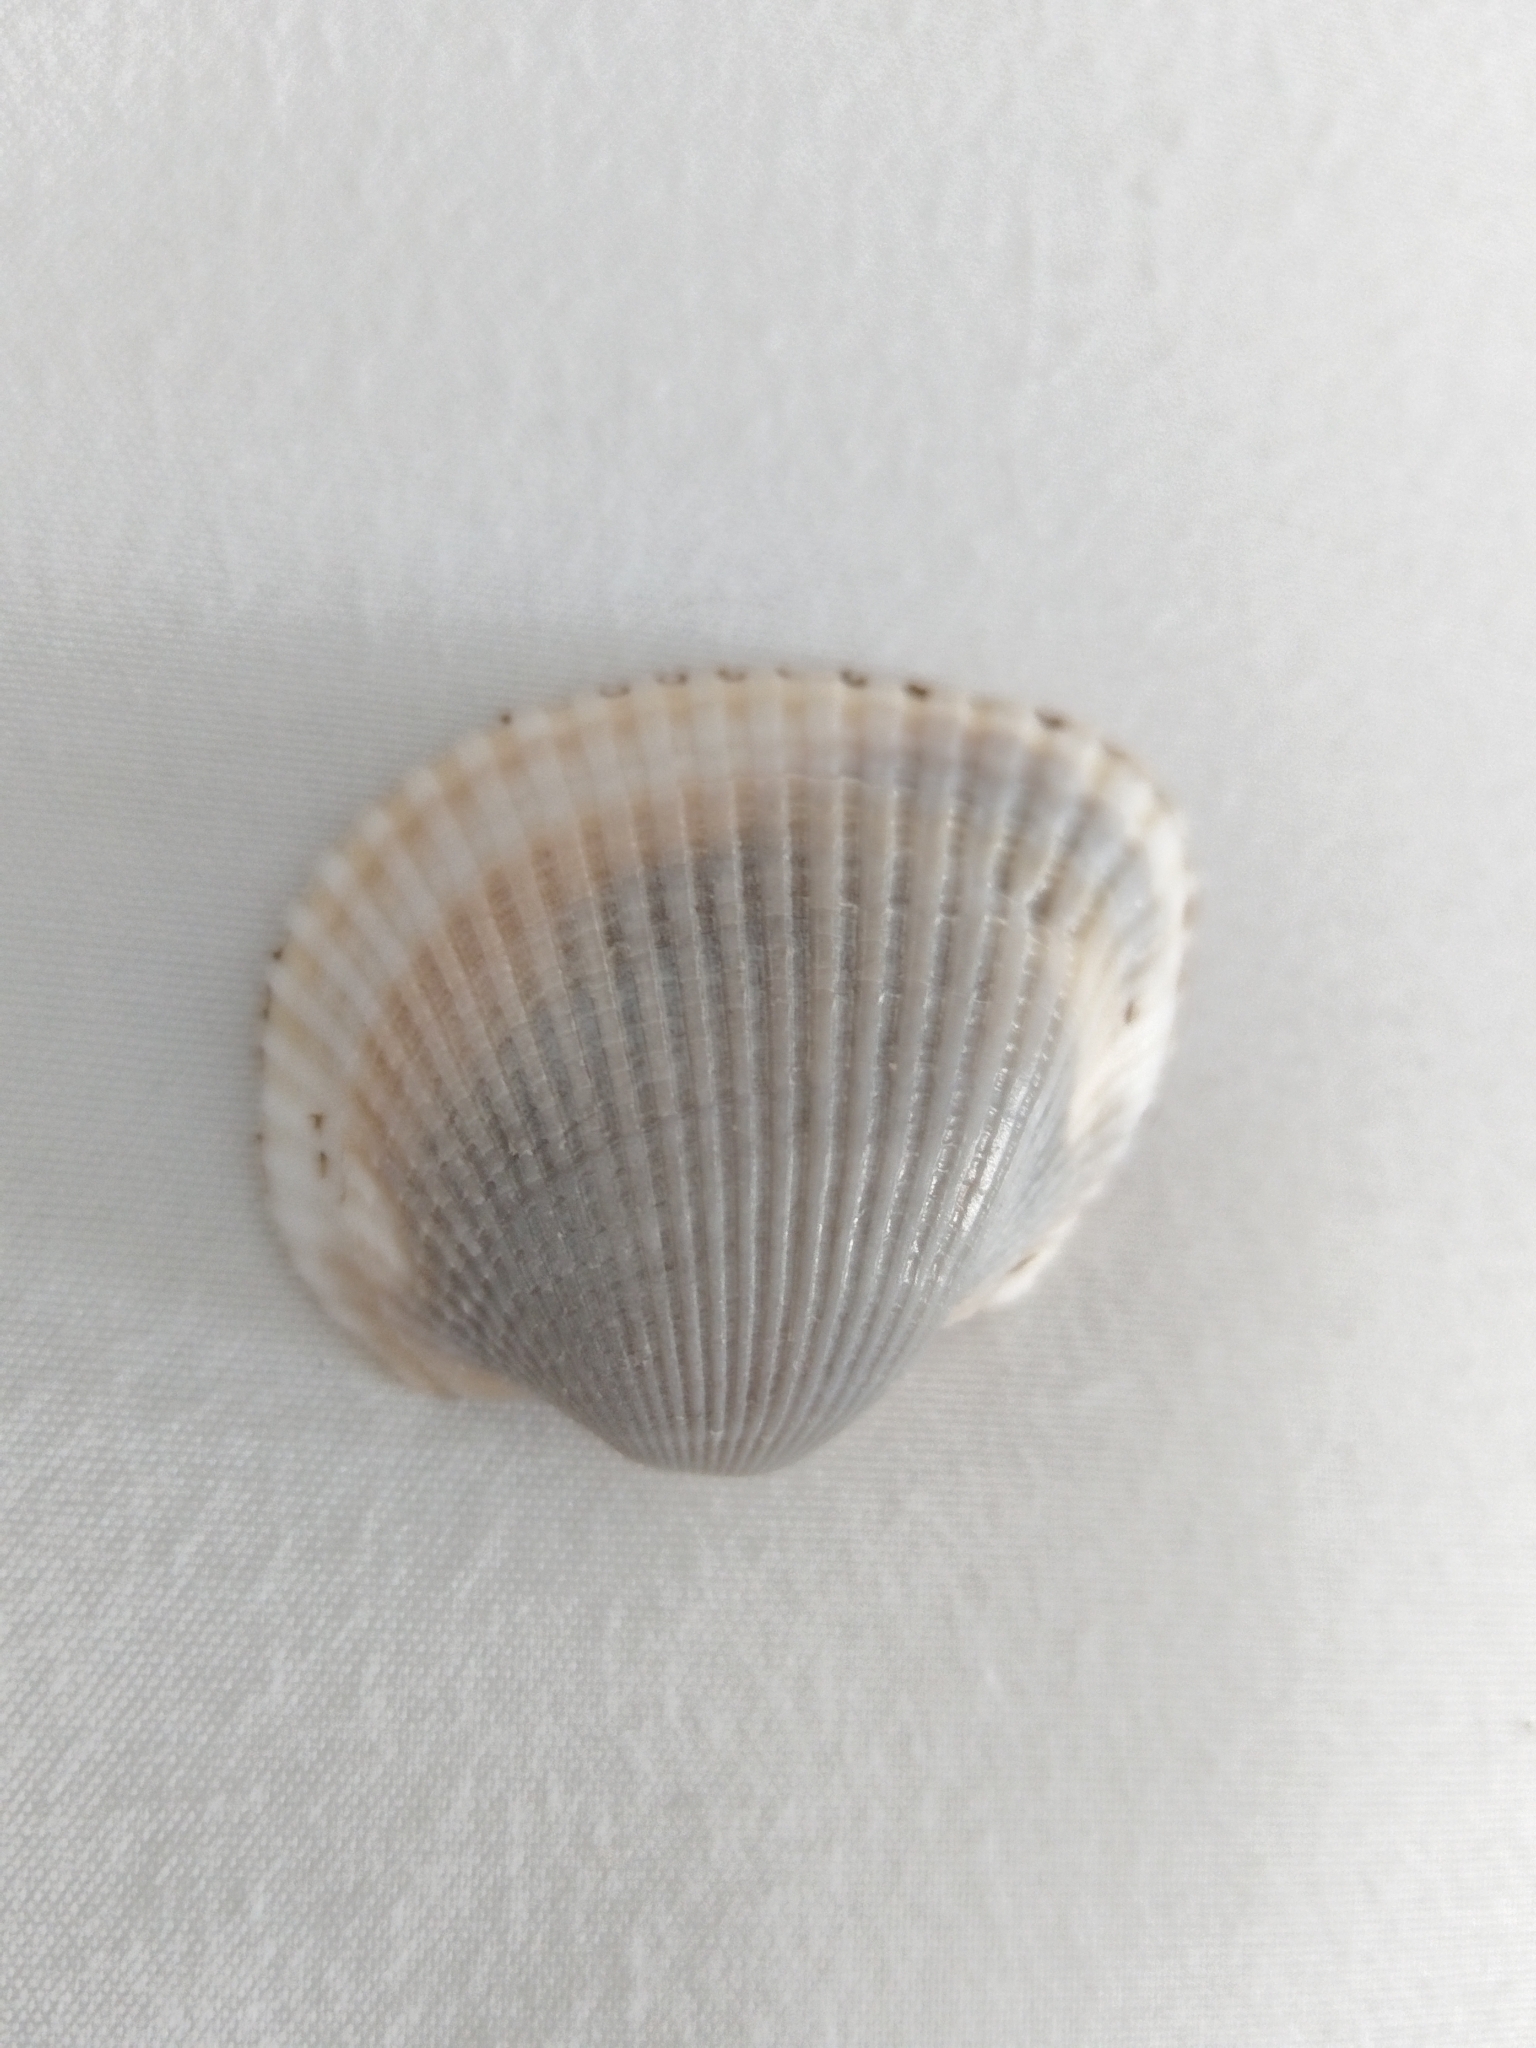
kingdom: Animalia
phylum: Mollusca
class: Bivalvia
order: Arcida
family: Arcidae
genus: Anadara
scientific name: Anadara kagoshimensis
